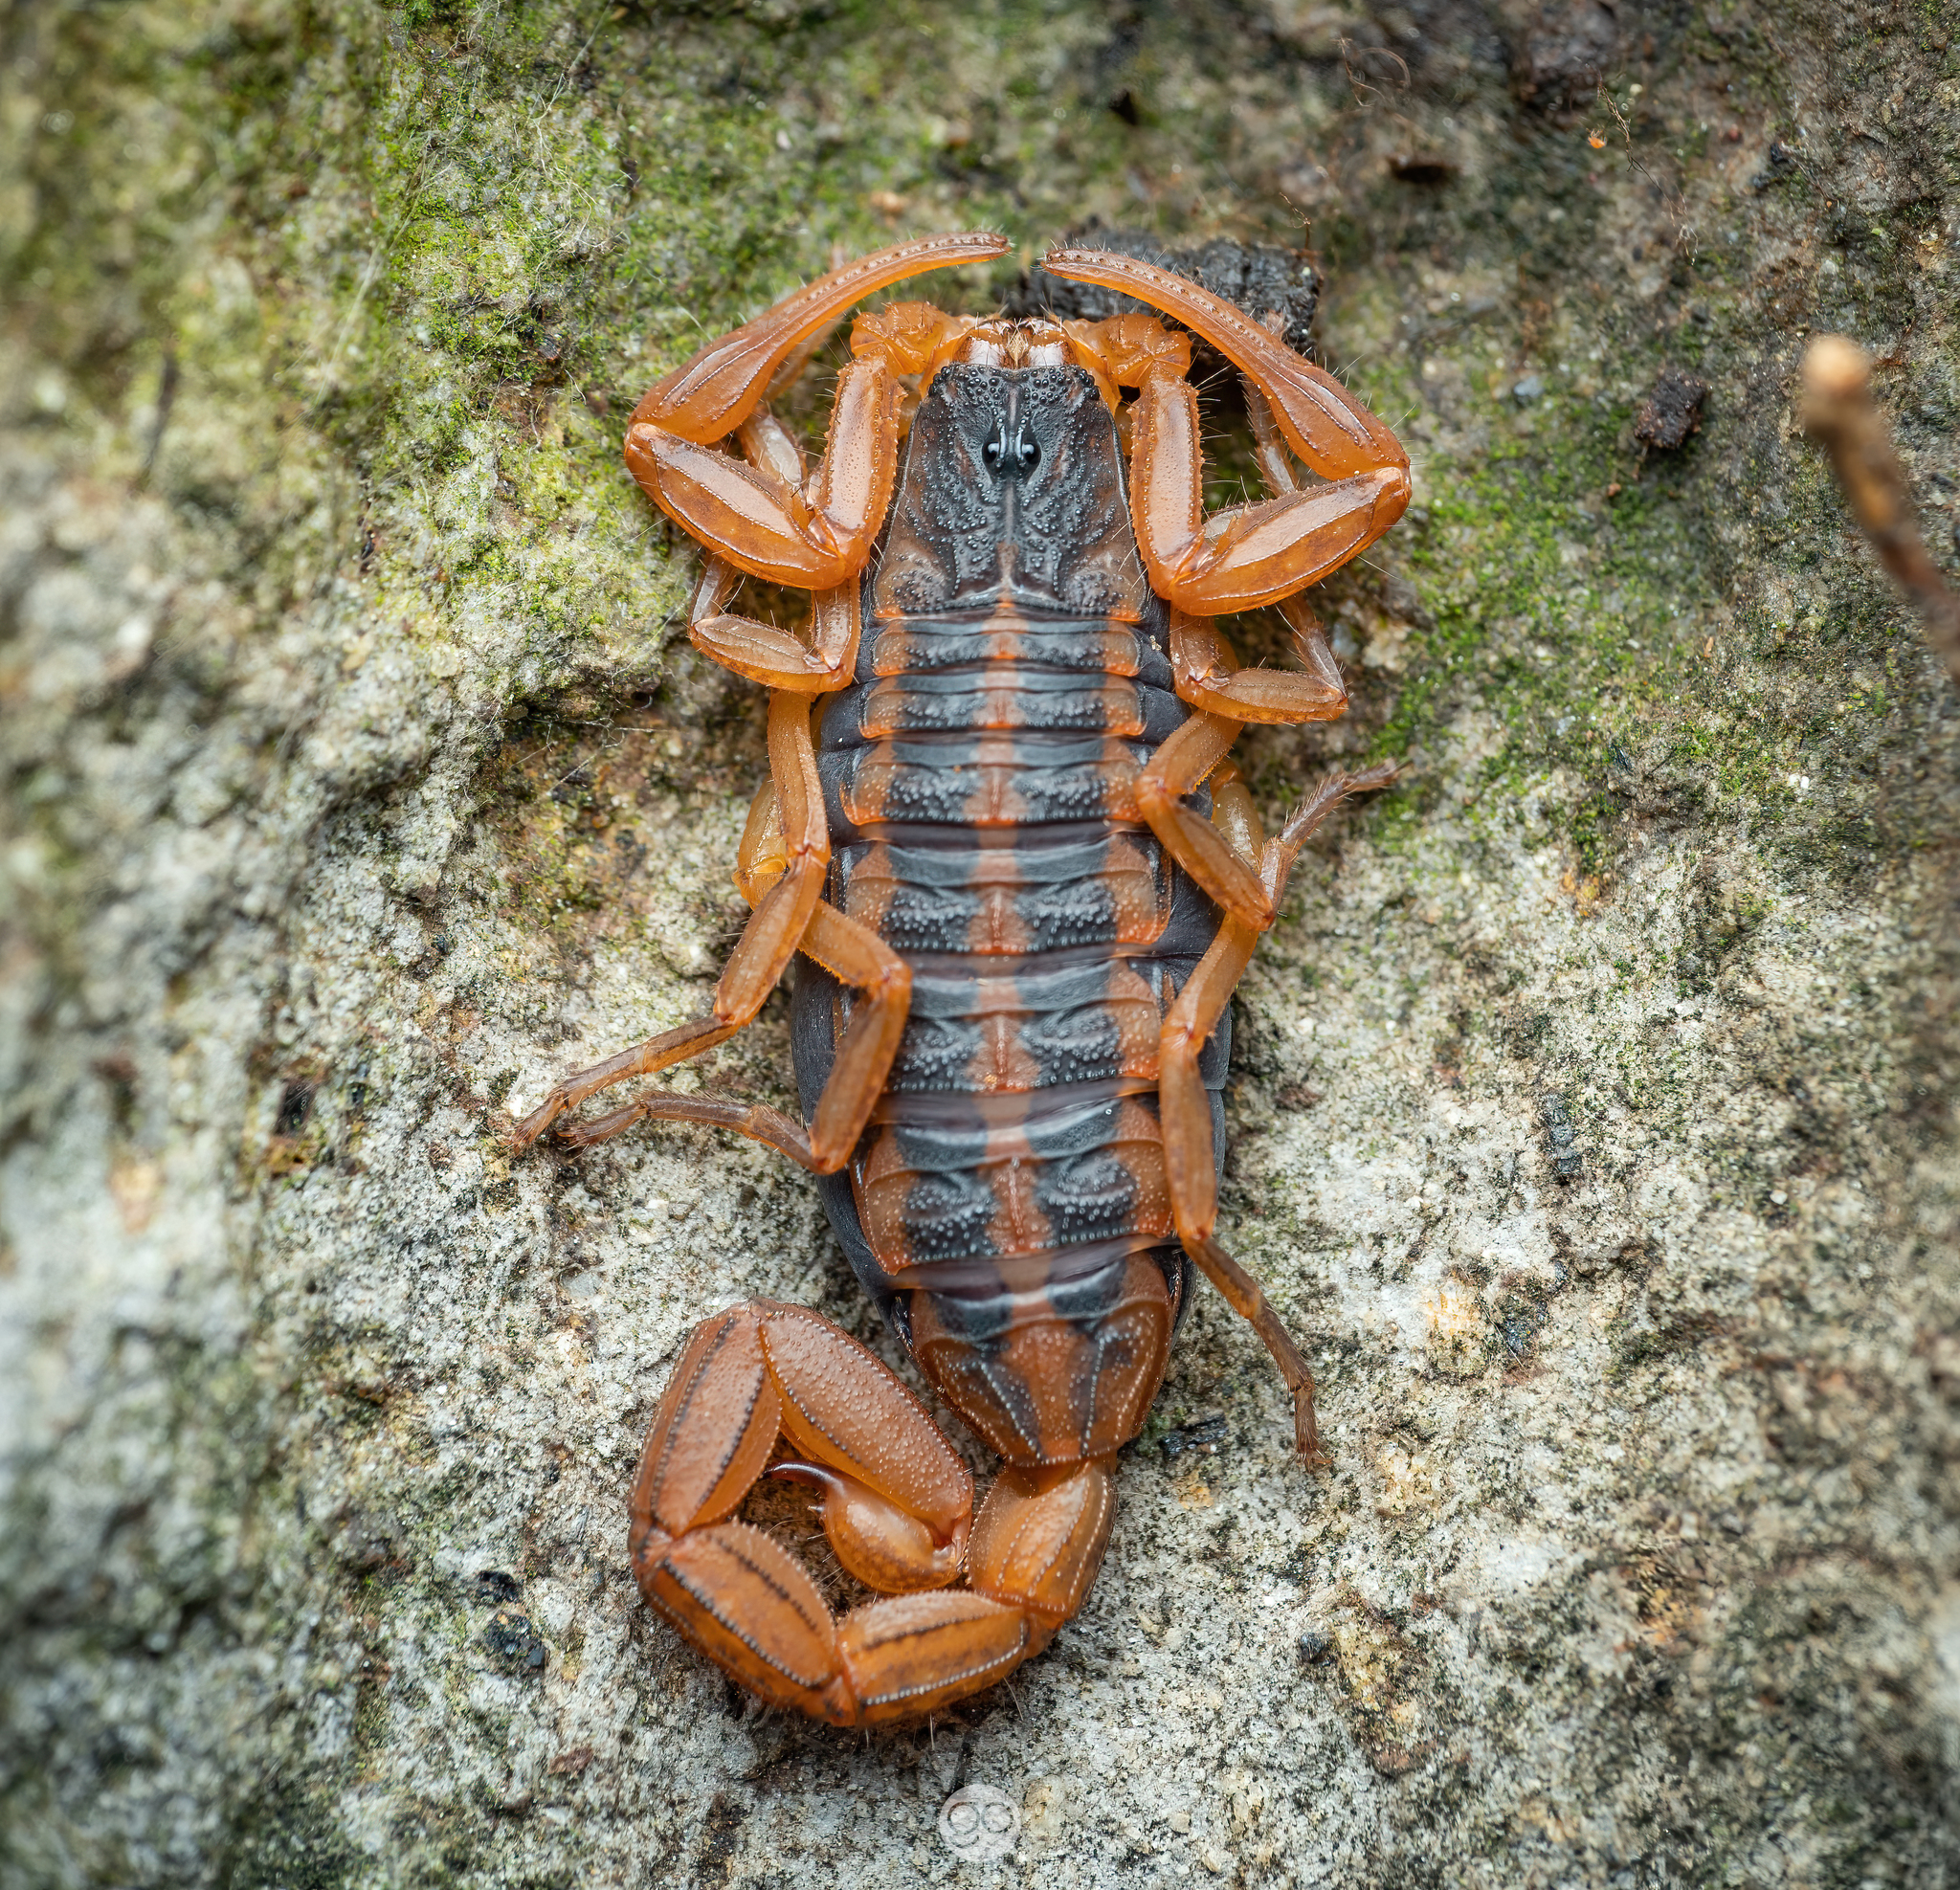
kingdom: Animalia
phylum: Arthropoda
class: Arachnida
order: Scorpiones
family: Buthidae
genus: Centruroides
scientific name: Centruroides ornatus
